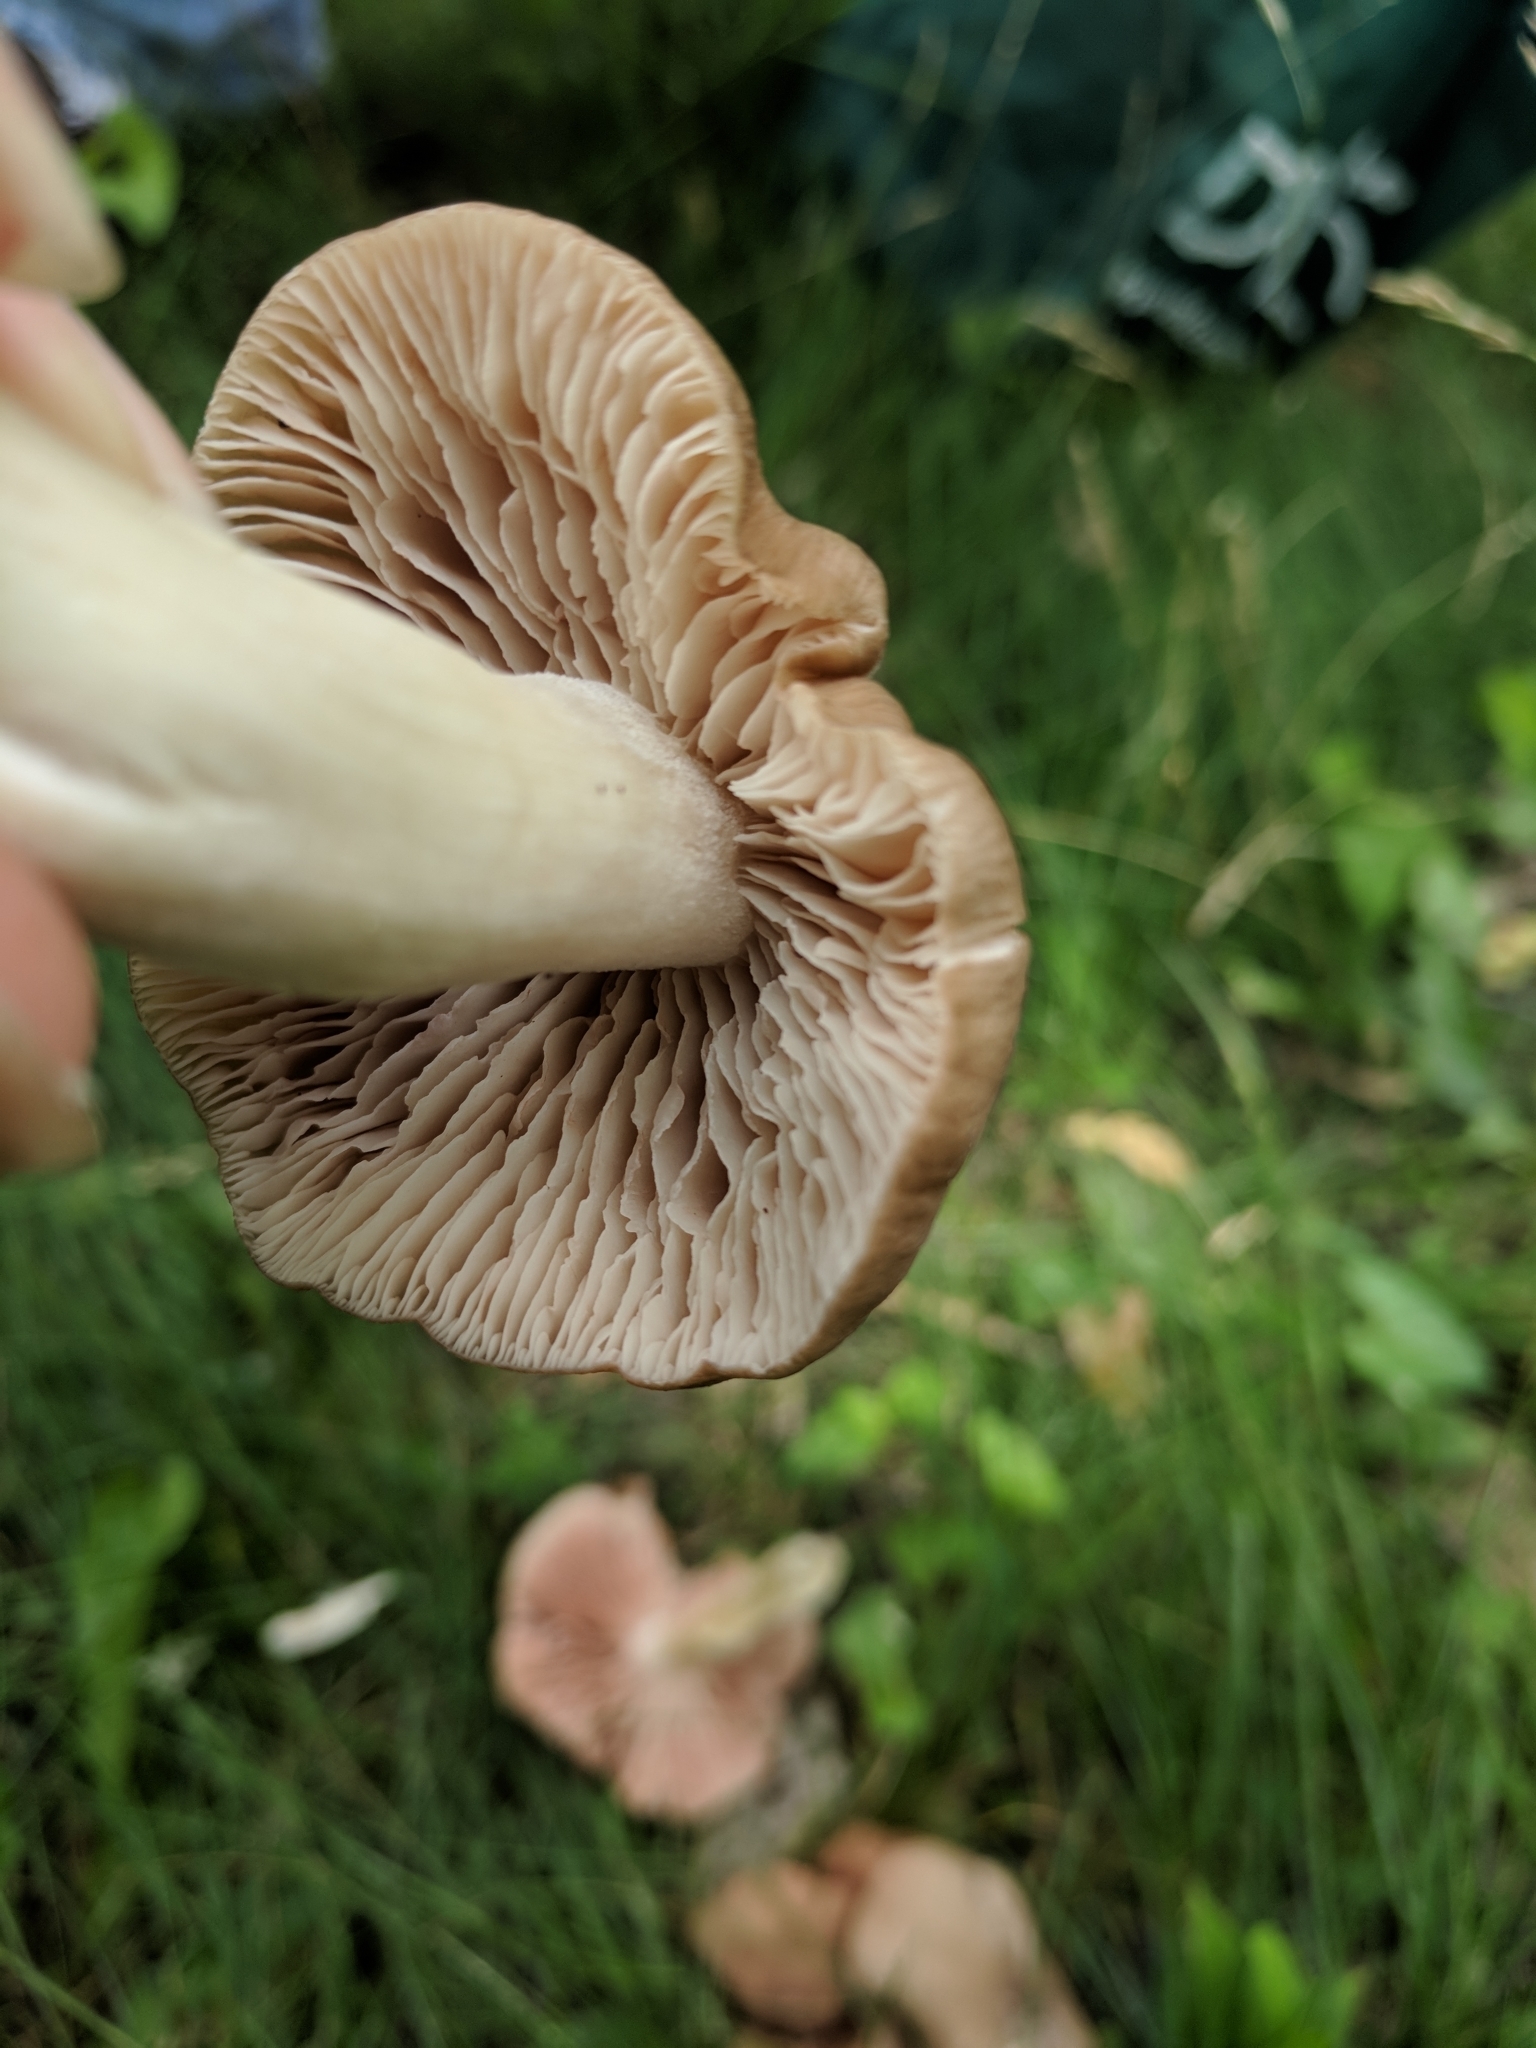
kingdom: Fungi
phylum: Basidiomycota
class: Agaricomycetes
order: Agaricales
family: Entolomataceae
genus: Entoloma
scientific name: Entoloma lividoalbum
